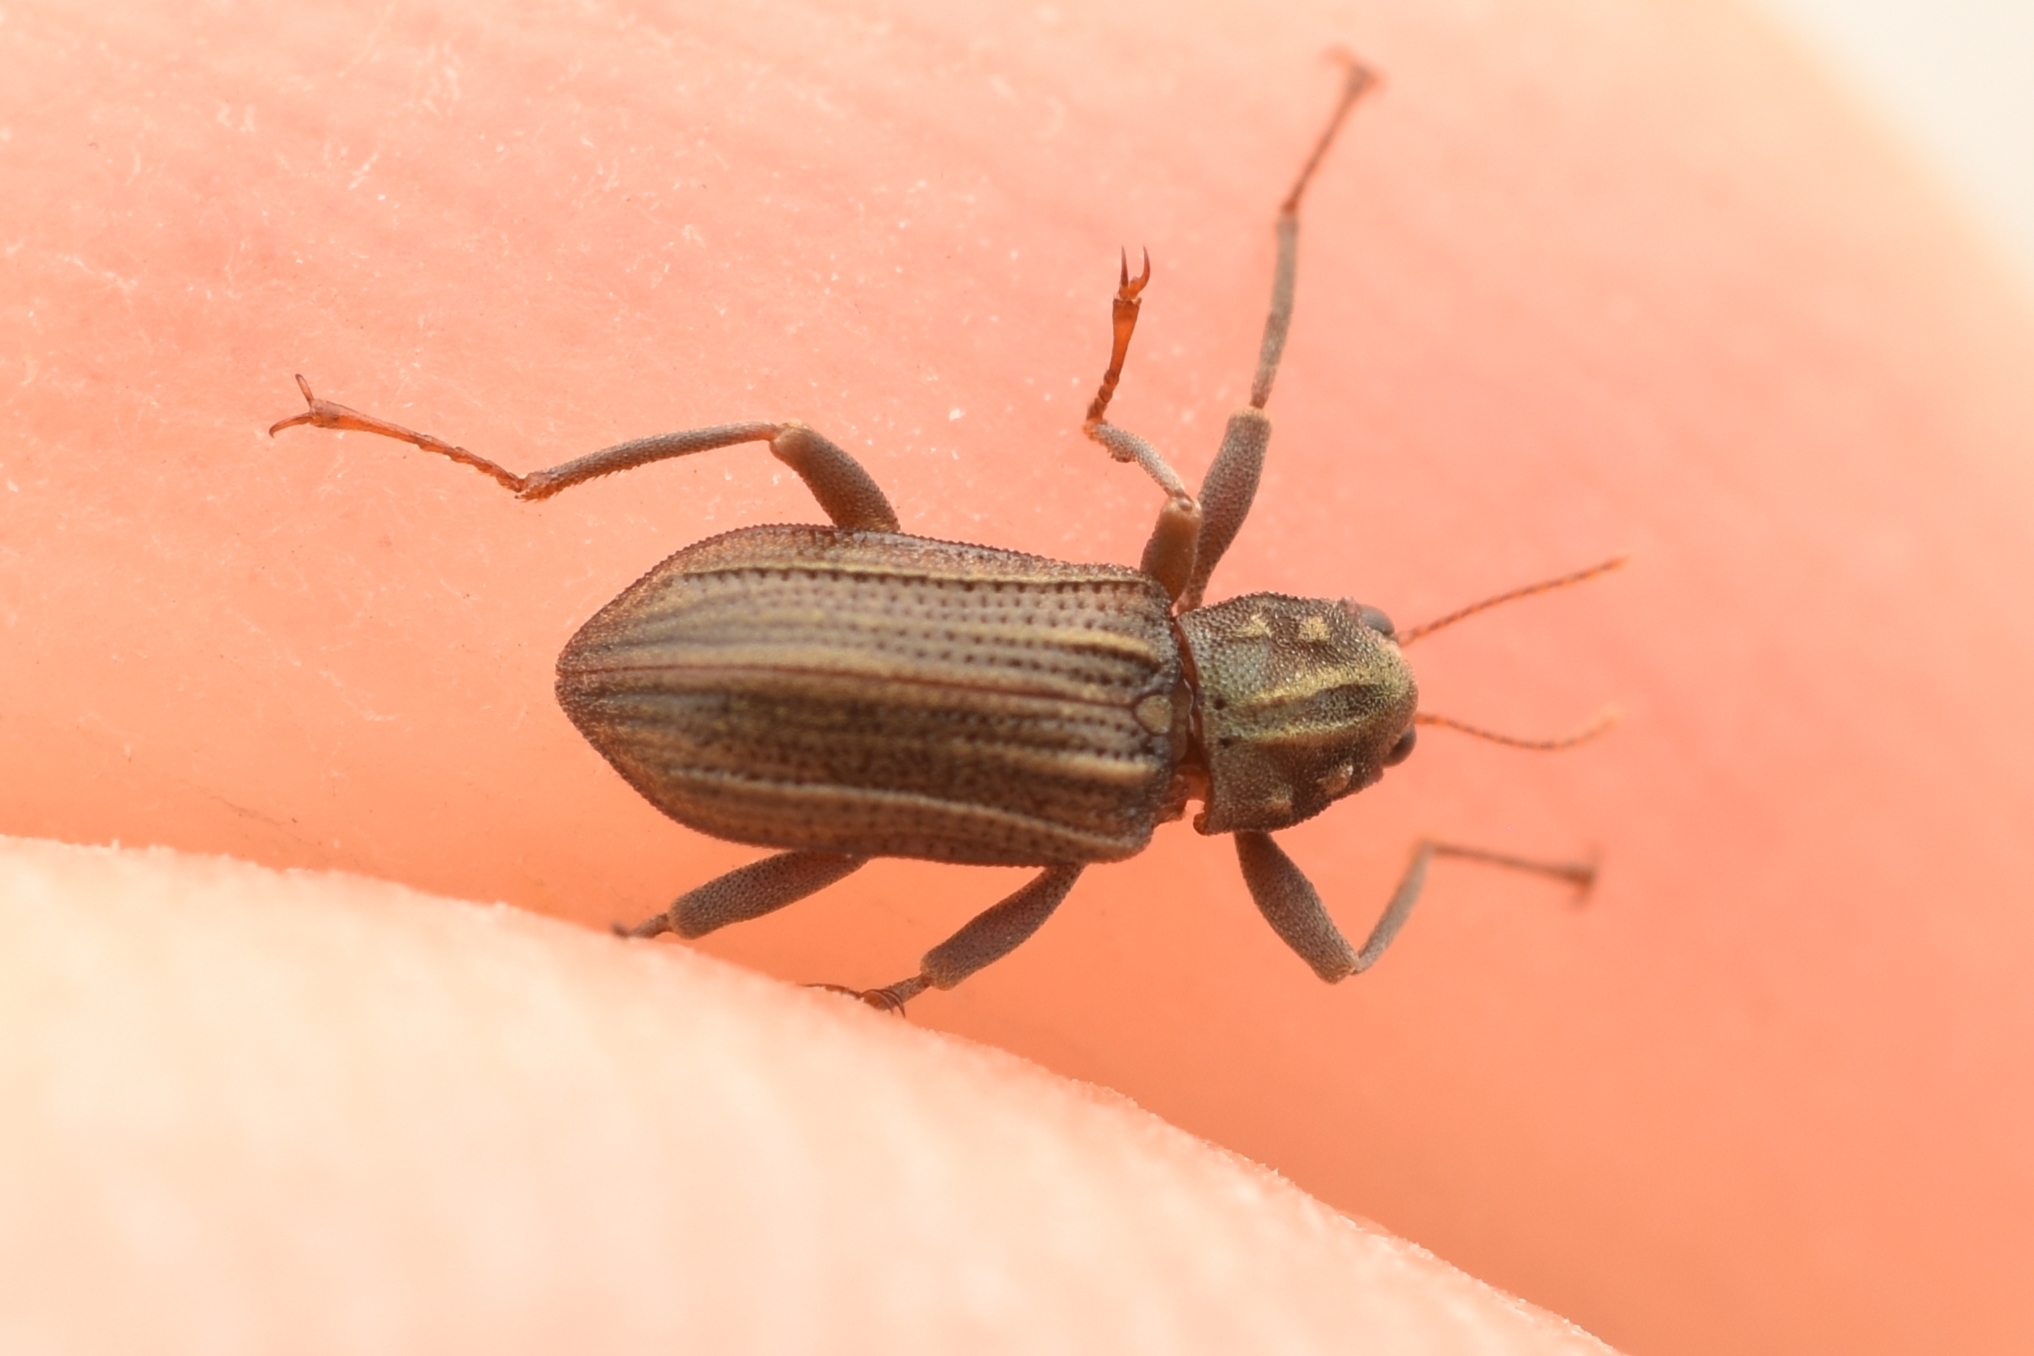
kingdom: Animalia
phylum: Arthropoda
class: Insecta
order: Coleoptera
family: Elmidae
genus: Stenelmis
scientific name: Stenelmis occidentalis
